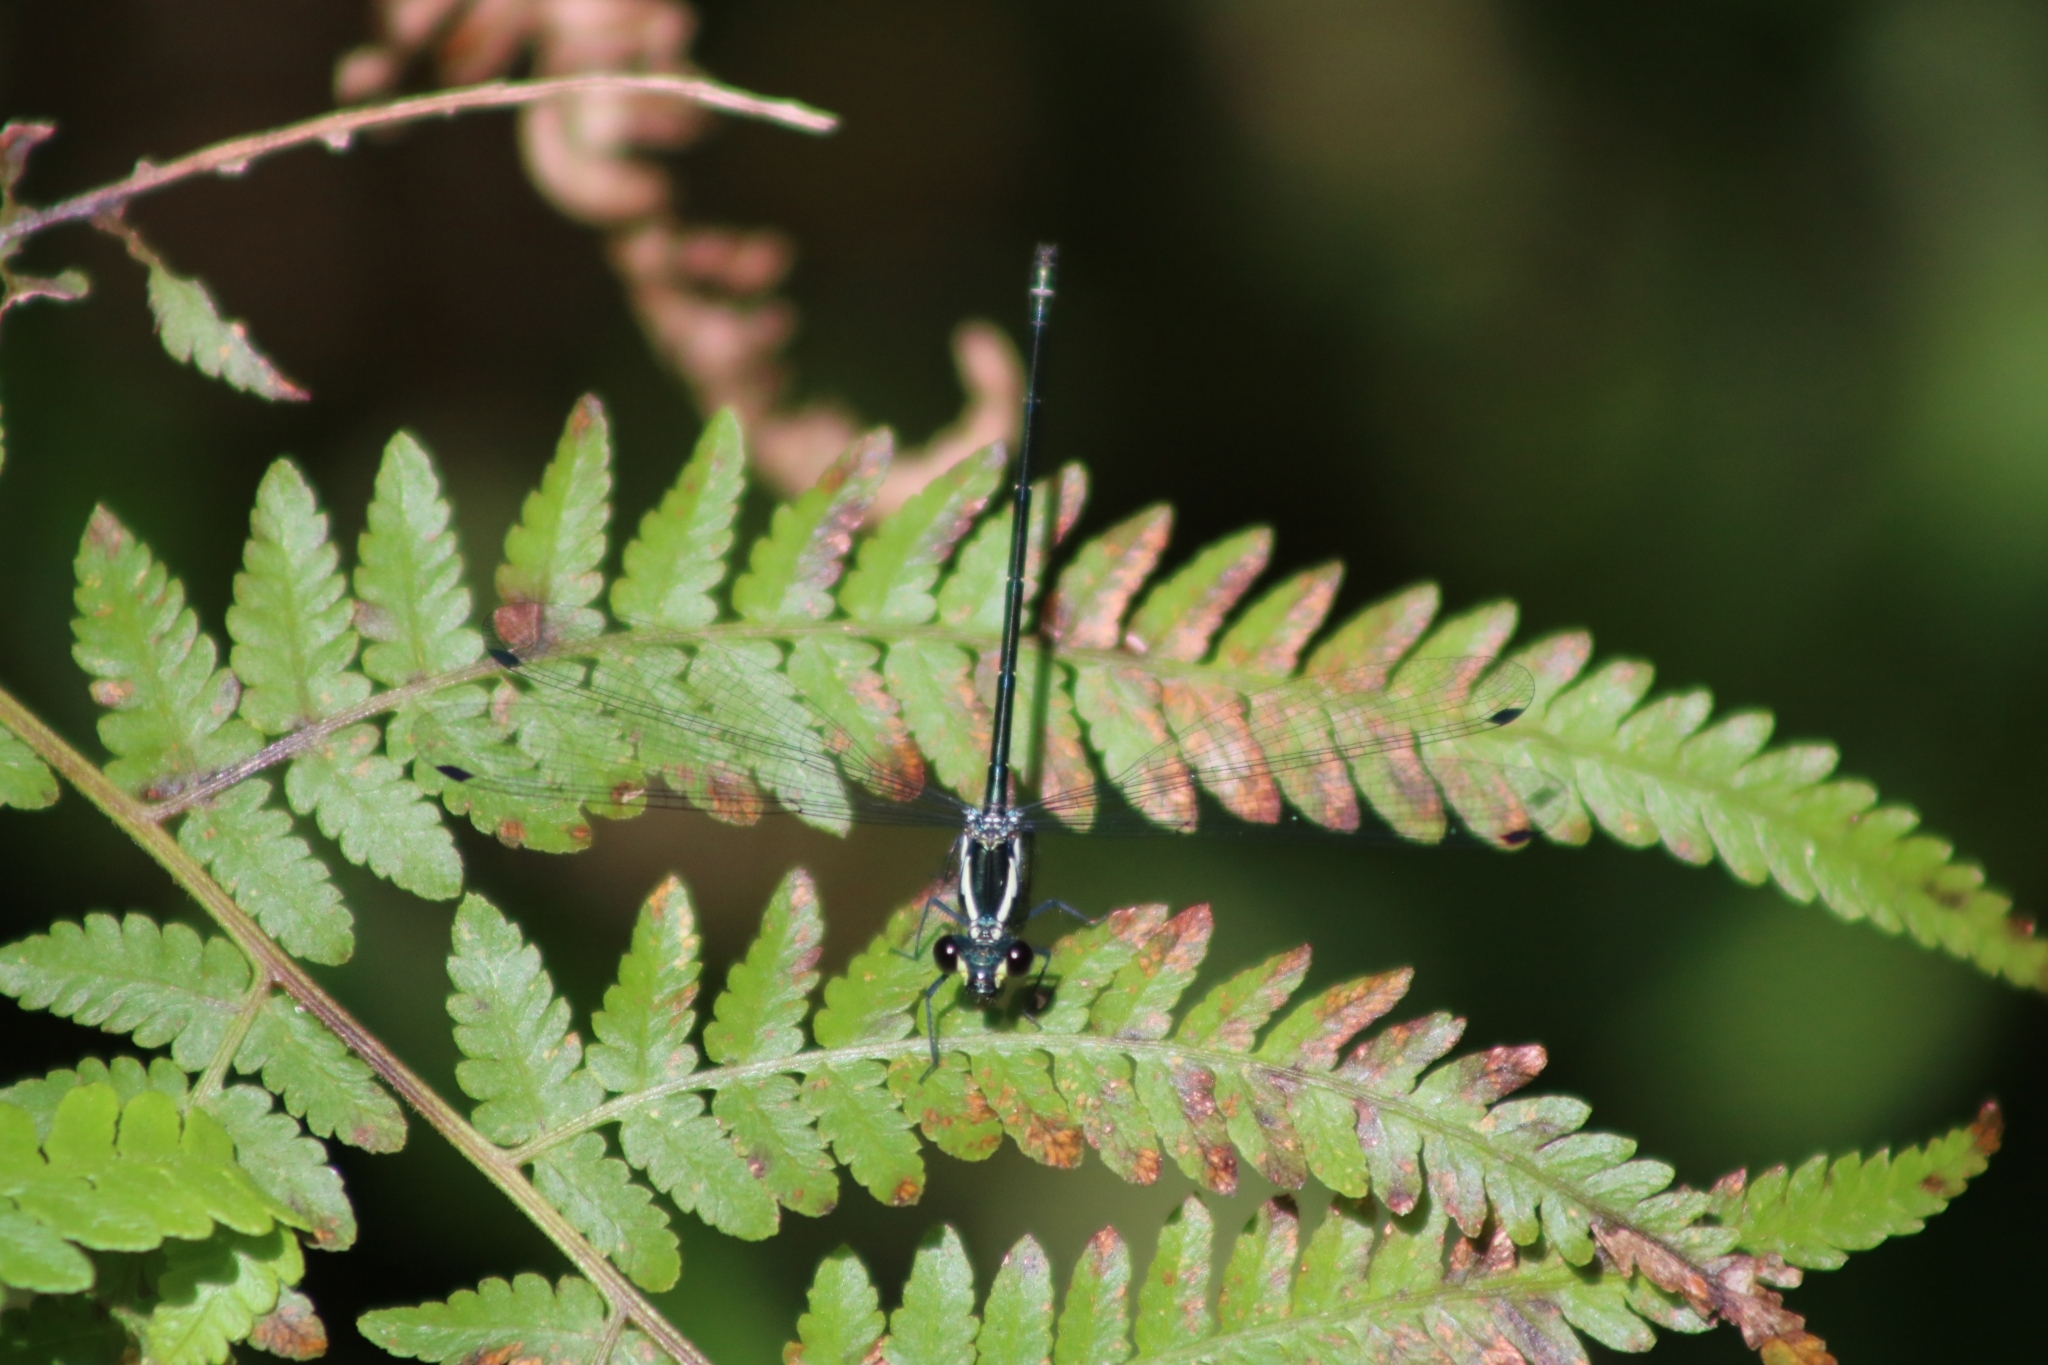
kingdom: Animalia
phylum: Arthropoda
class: Insecta
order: Odonata
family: Argiolestidae
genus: Austroargiolestes
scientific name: Austroargiolestes icteromelas
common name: Common flatwing
